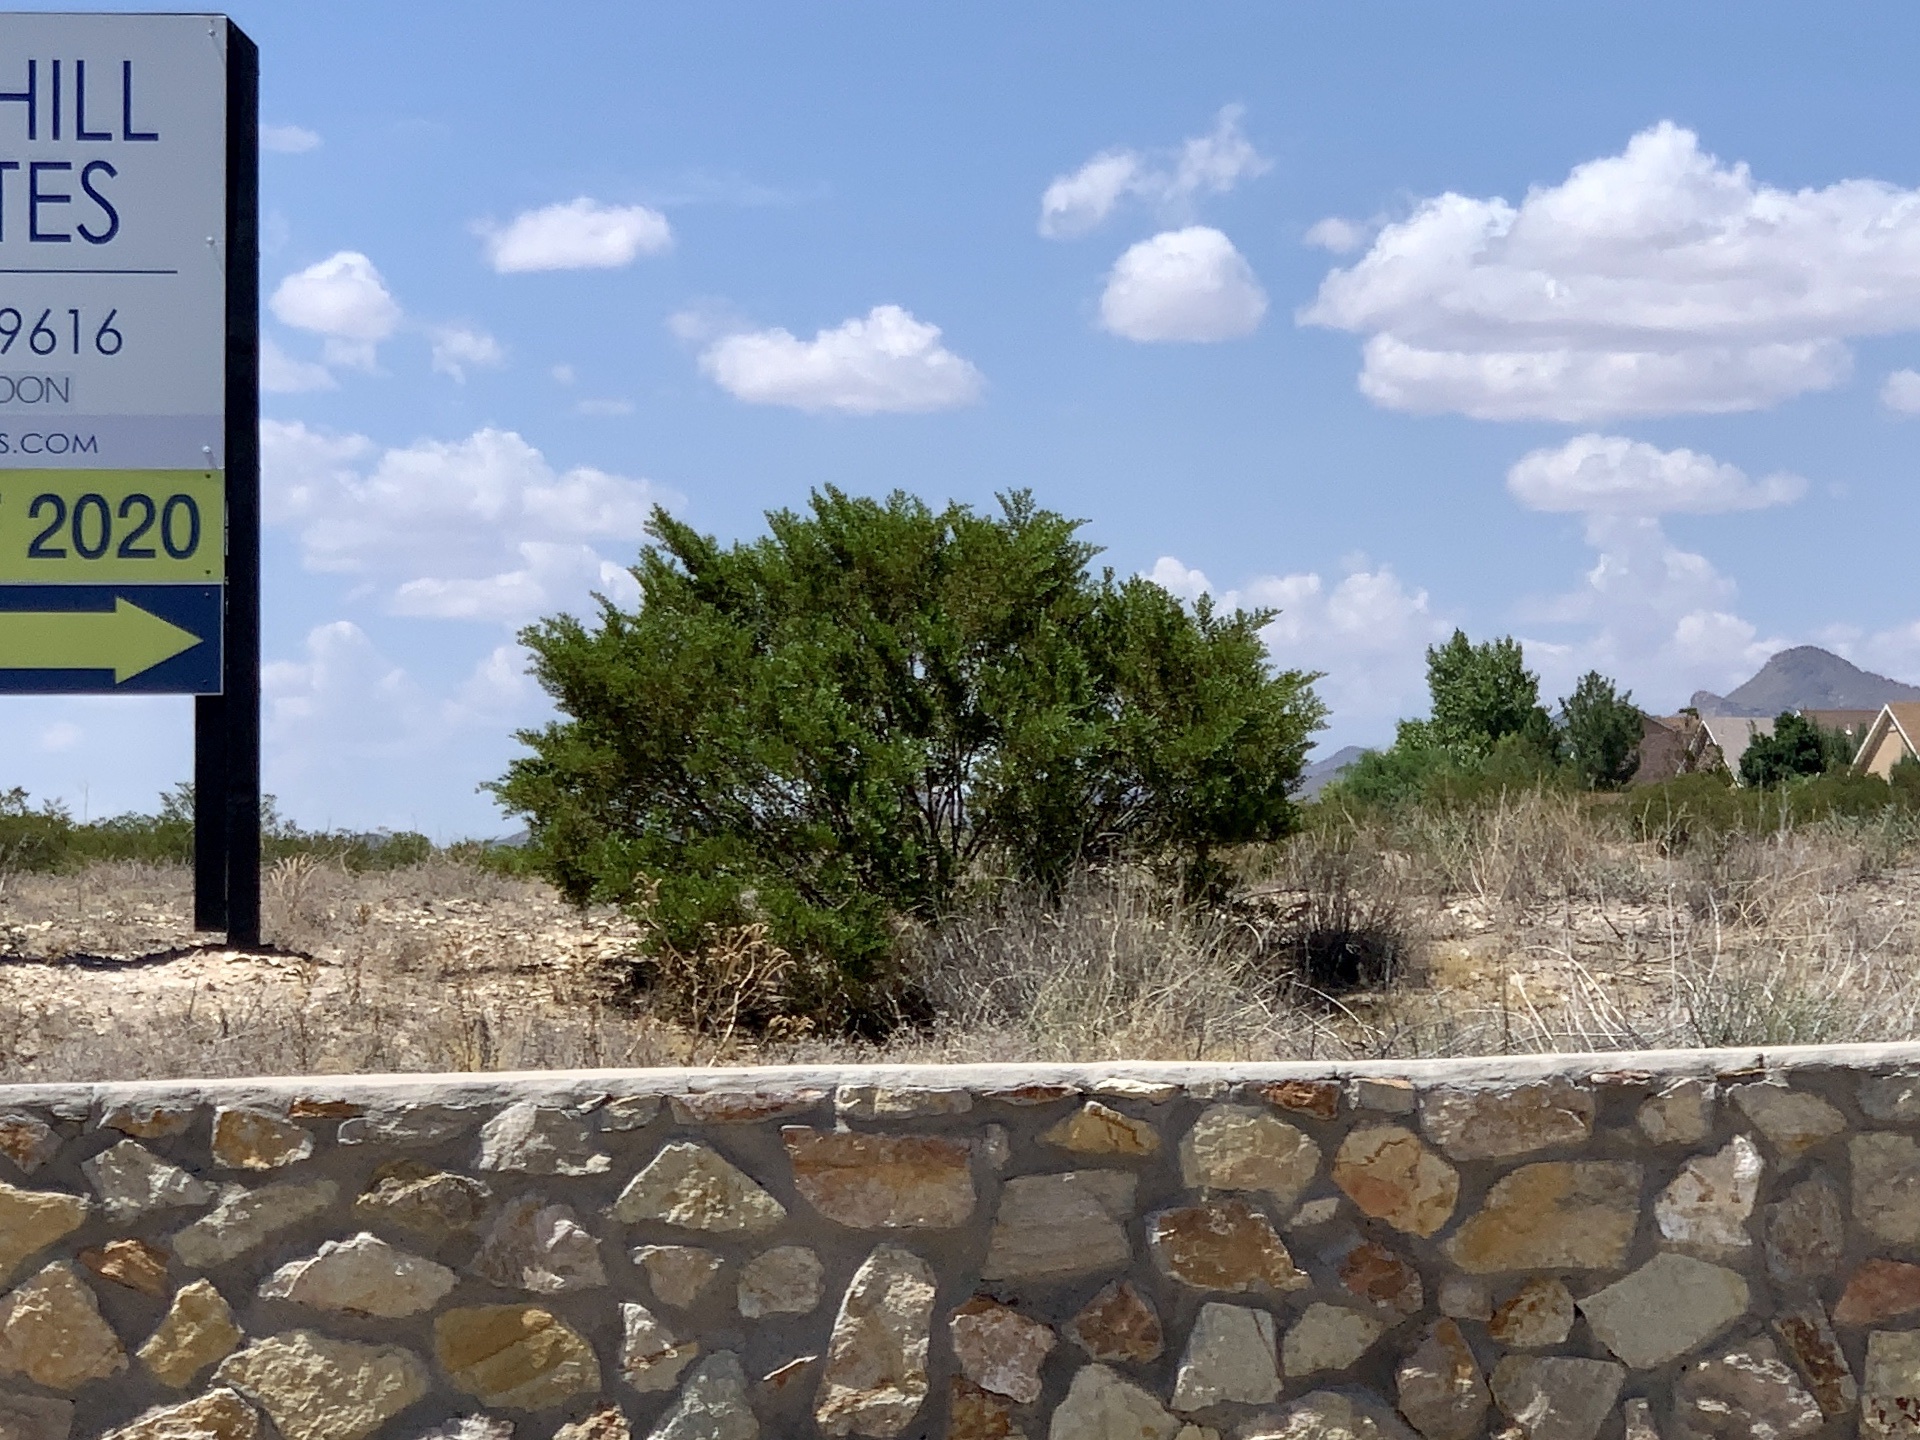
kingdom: Plantae
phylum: Tracheophyta
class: Magnoliopsida
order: Zygophyllales
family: Zygophyllaceae
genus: Larrea
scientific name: Larrea tridentata
